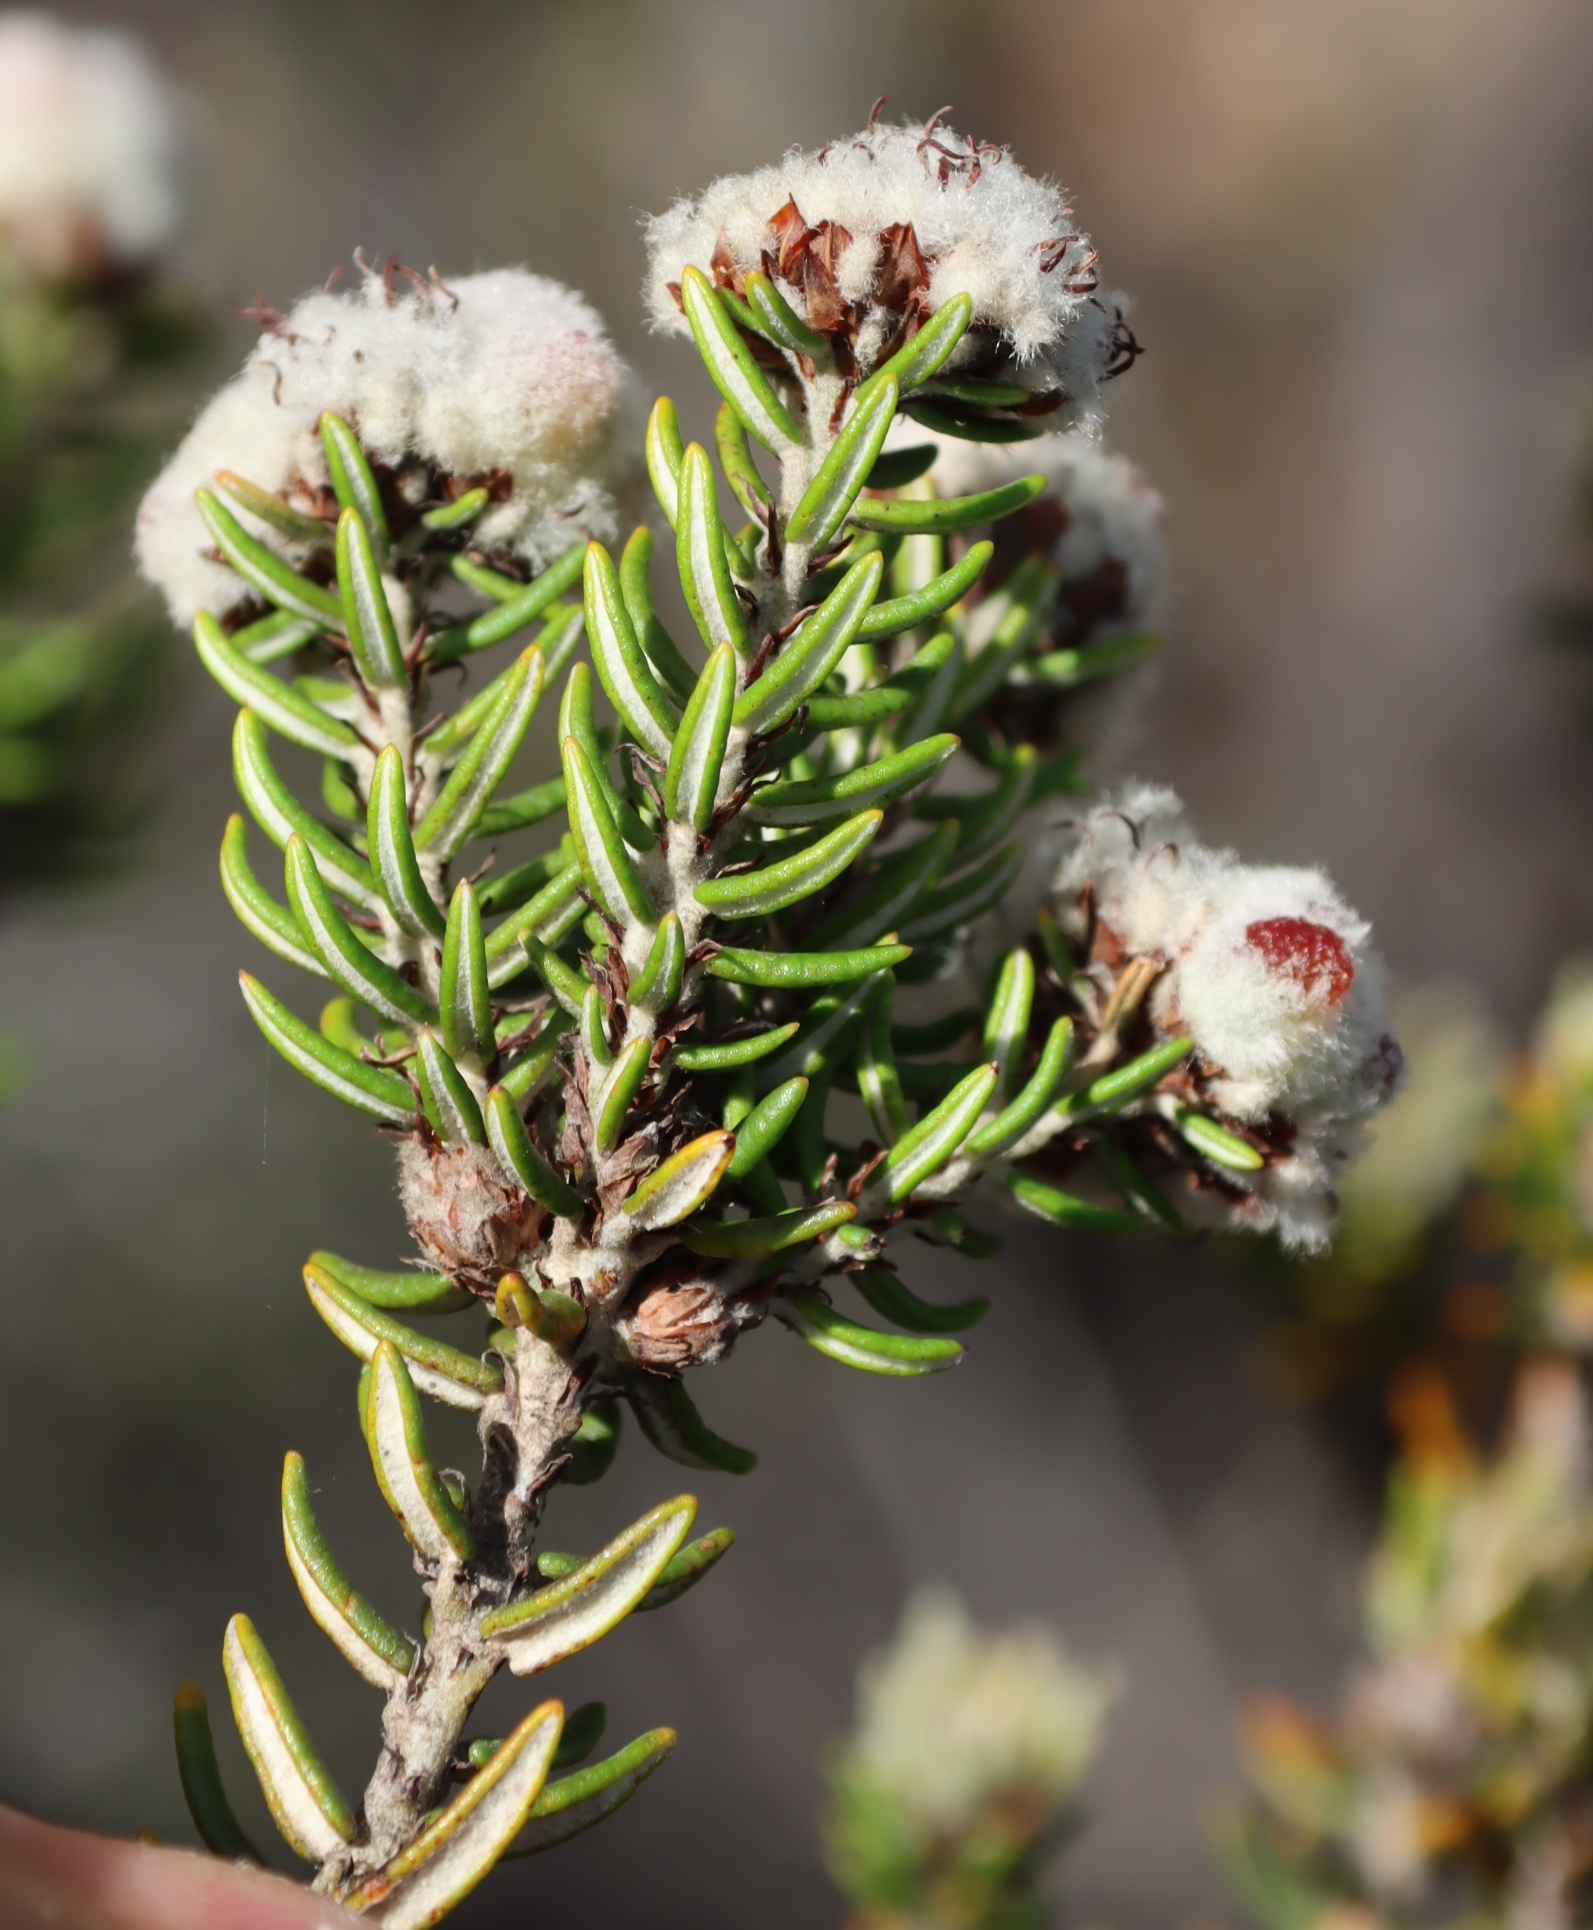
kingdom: Plantae
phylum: Tracheophyta
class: Magnoliopsida
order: Rosales
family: Rhamnaceae
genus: Trichocephalus
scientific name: Trichocephalus stipularis
